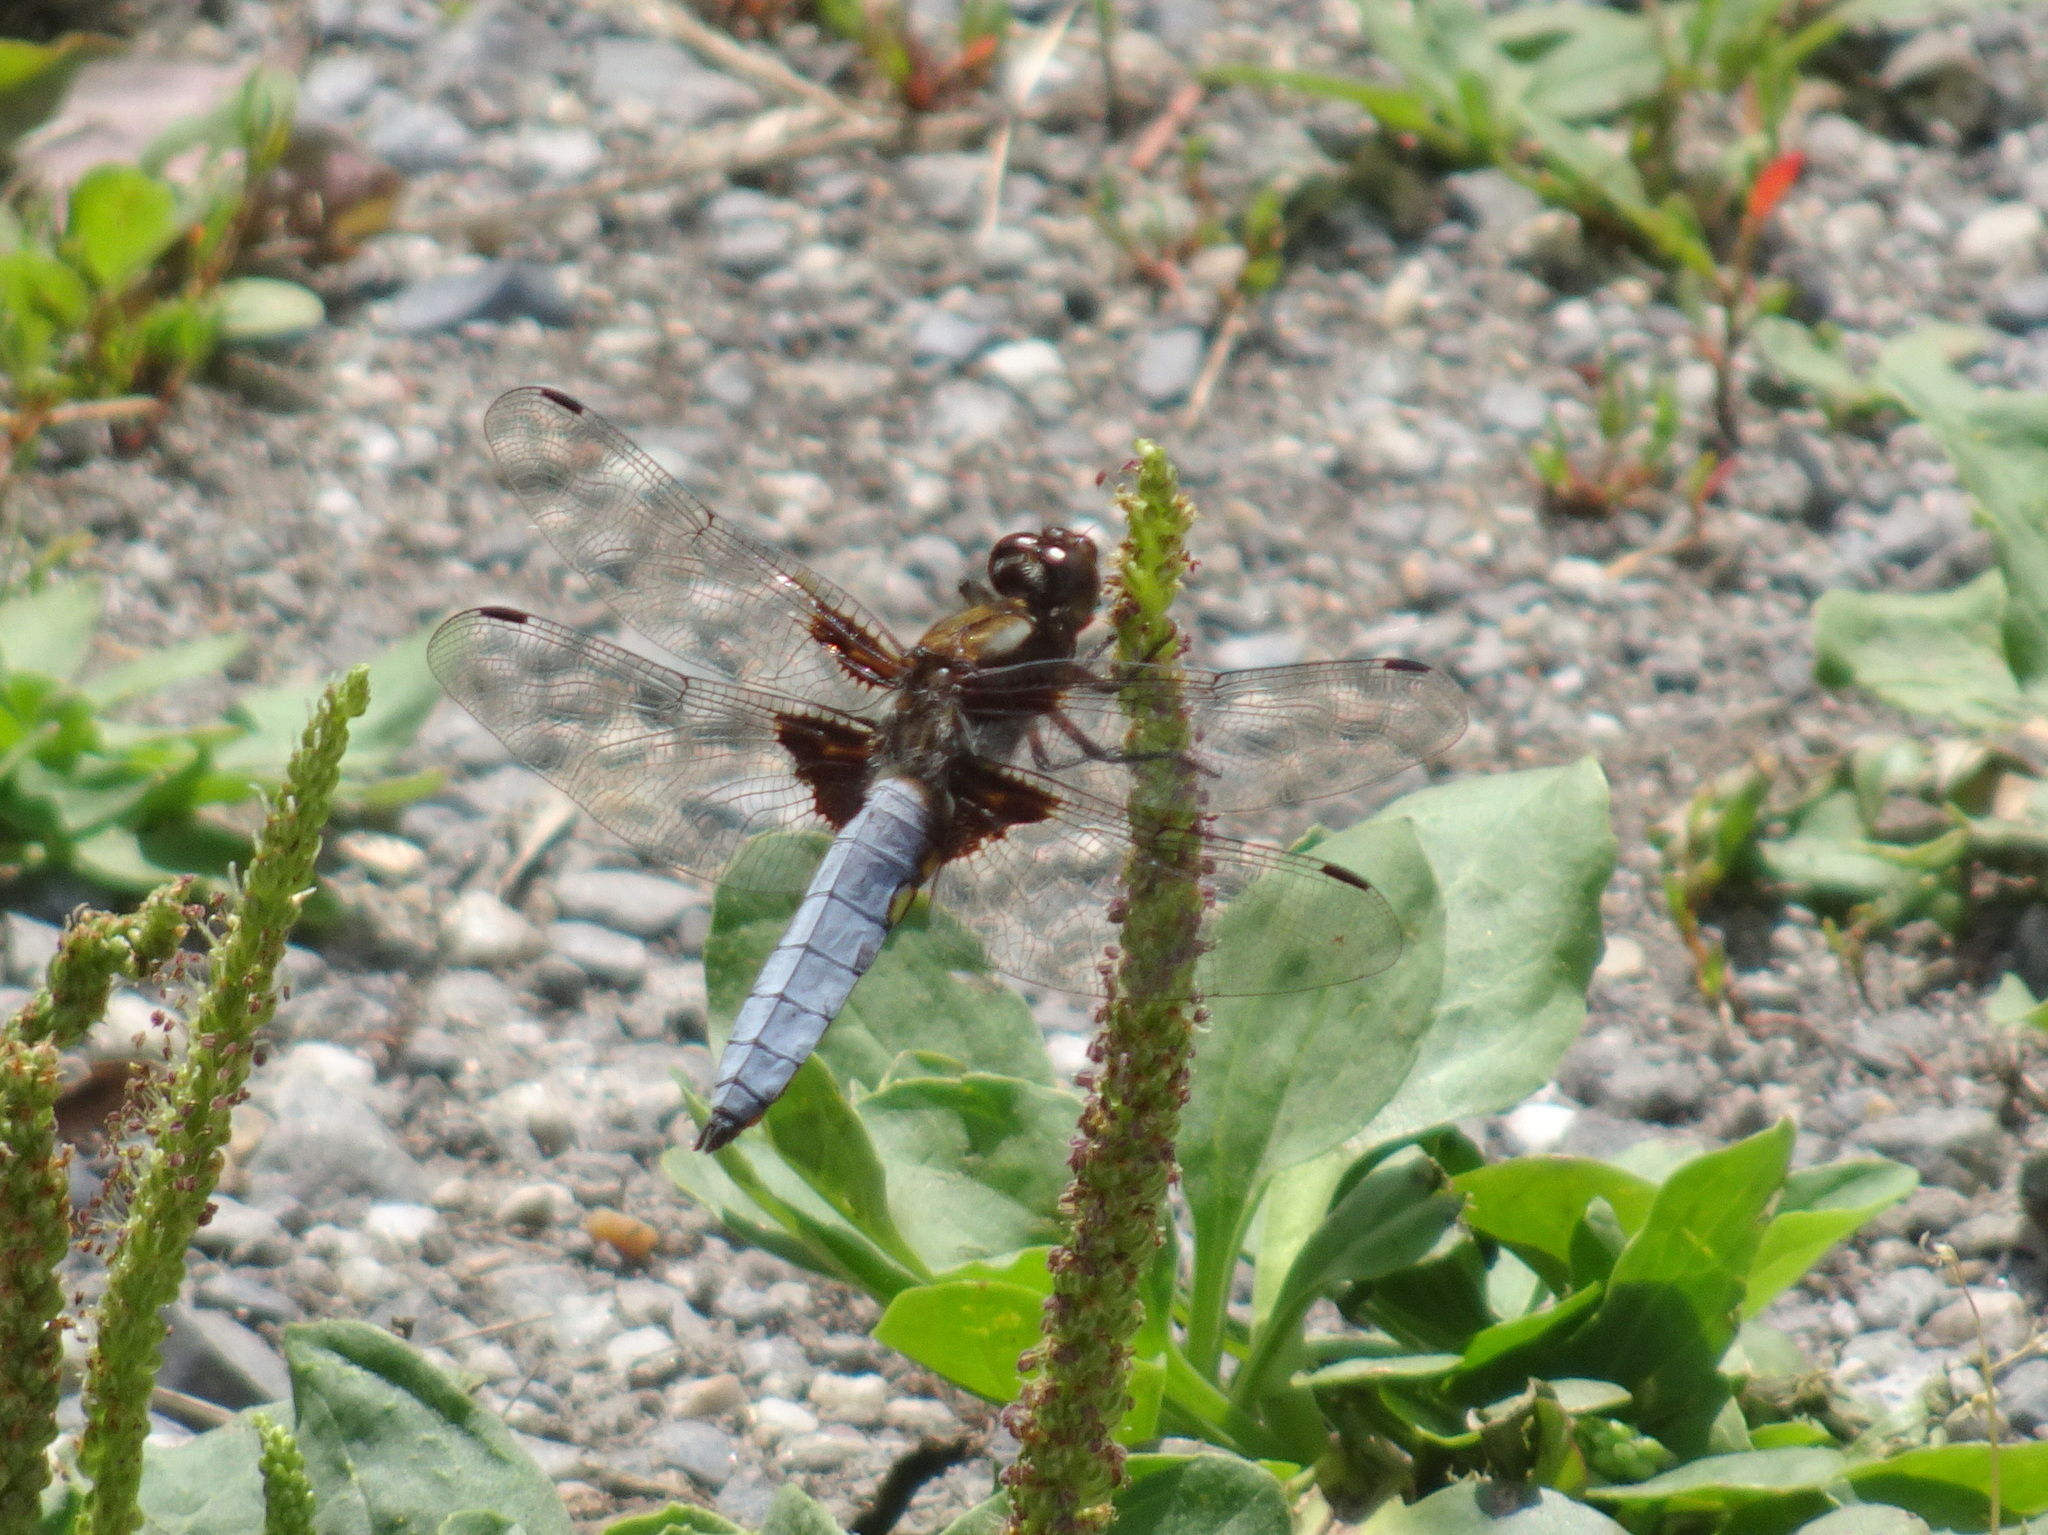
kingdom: Animalia
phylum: Arthropoda
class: Insecta
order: Odonata
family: Libellulidae
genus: Libellula
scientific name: Libellula depressa
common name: Broad-bodied chaser
